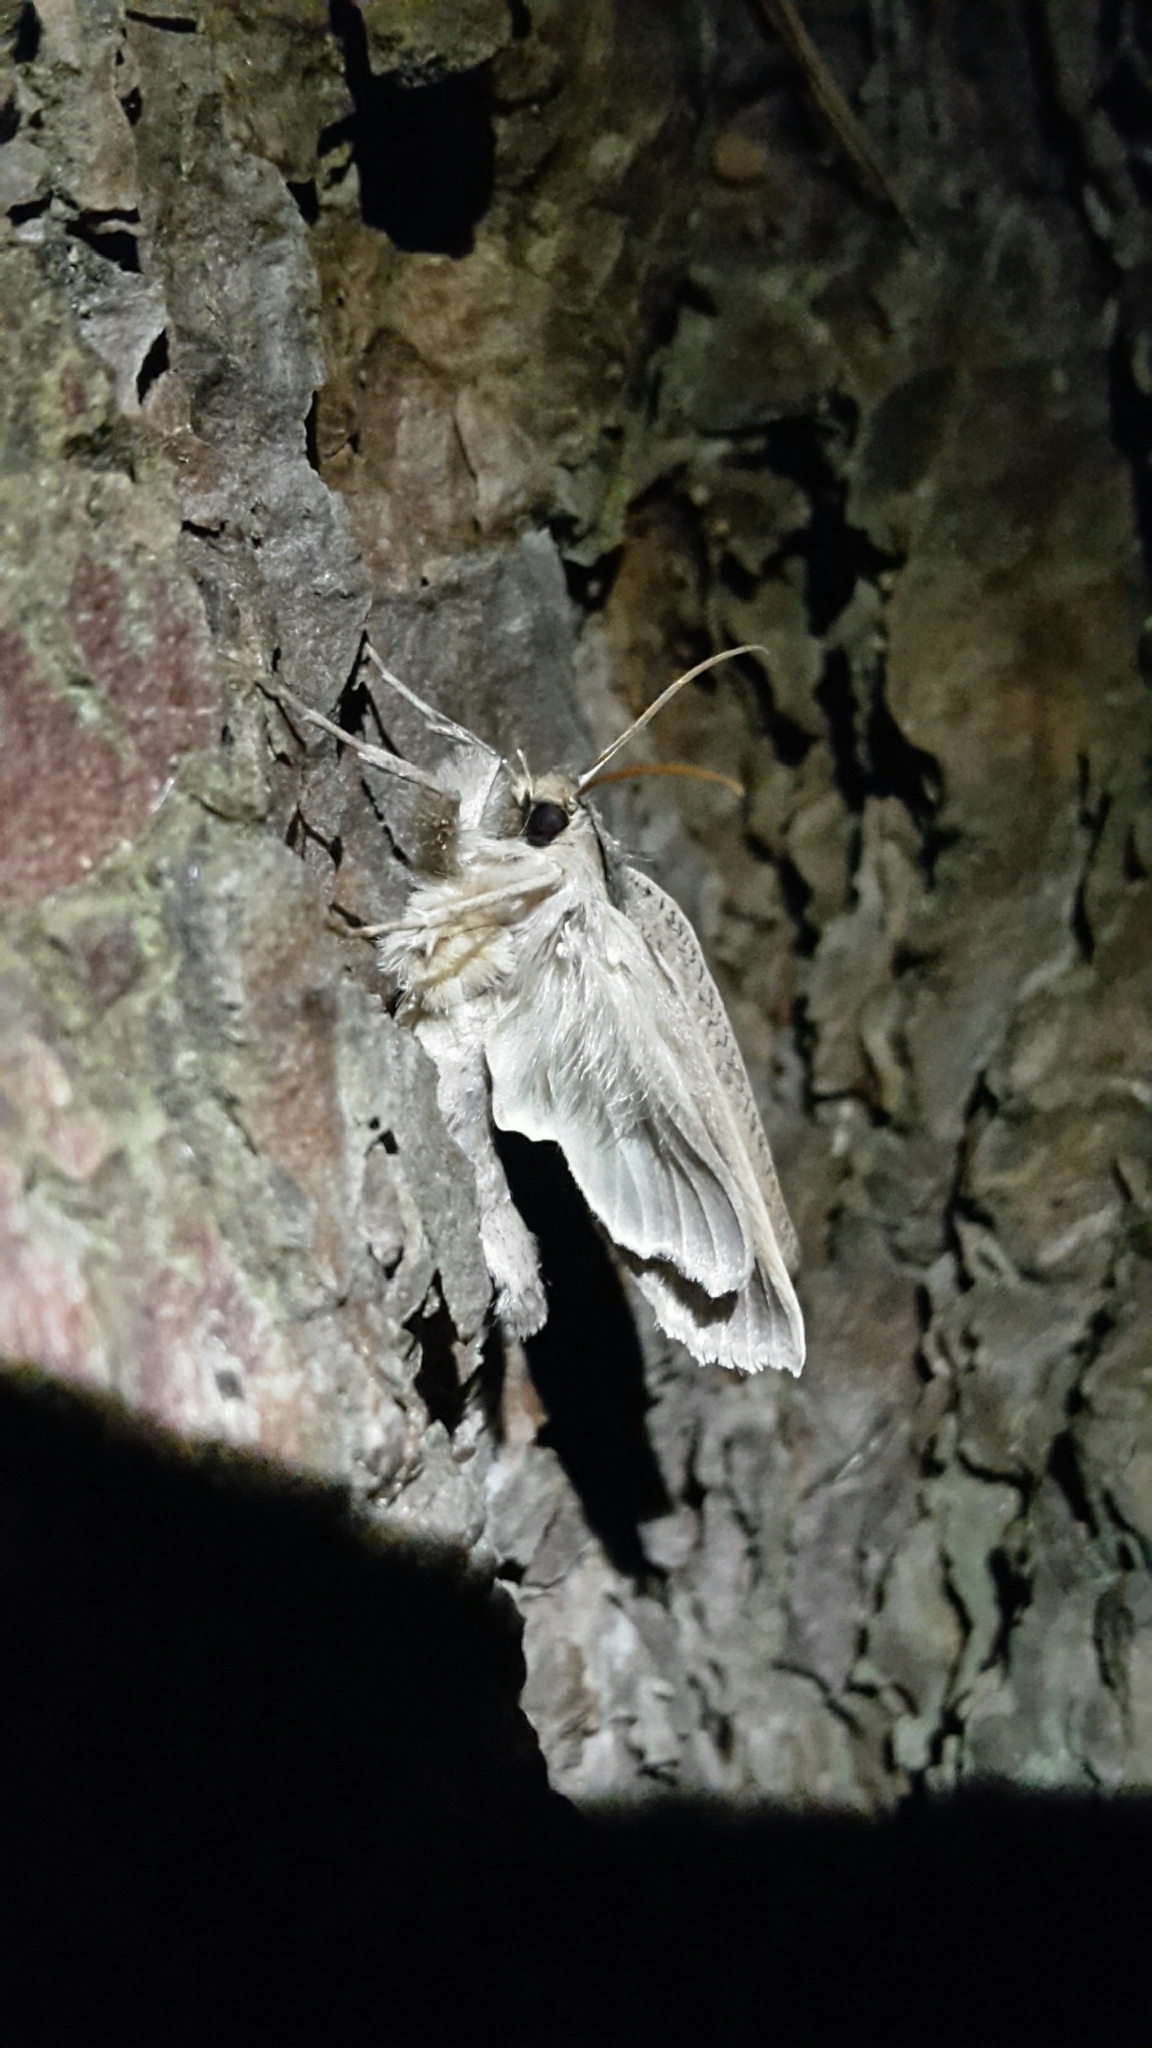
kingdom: Animalia
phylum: Arthropoda
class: Insecta
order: Lepidoptera
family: Geometridae
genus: Declana
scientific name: Declana leptomera
